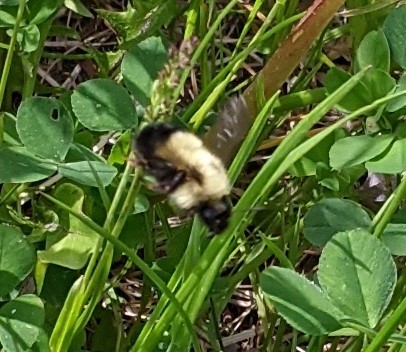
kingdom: Animalia
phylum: Arthropoda
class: Insecta
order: Hymenoptera
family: Apidae
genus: Bombus
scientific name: Bombus vagans
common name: Half-black bumble bee
